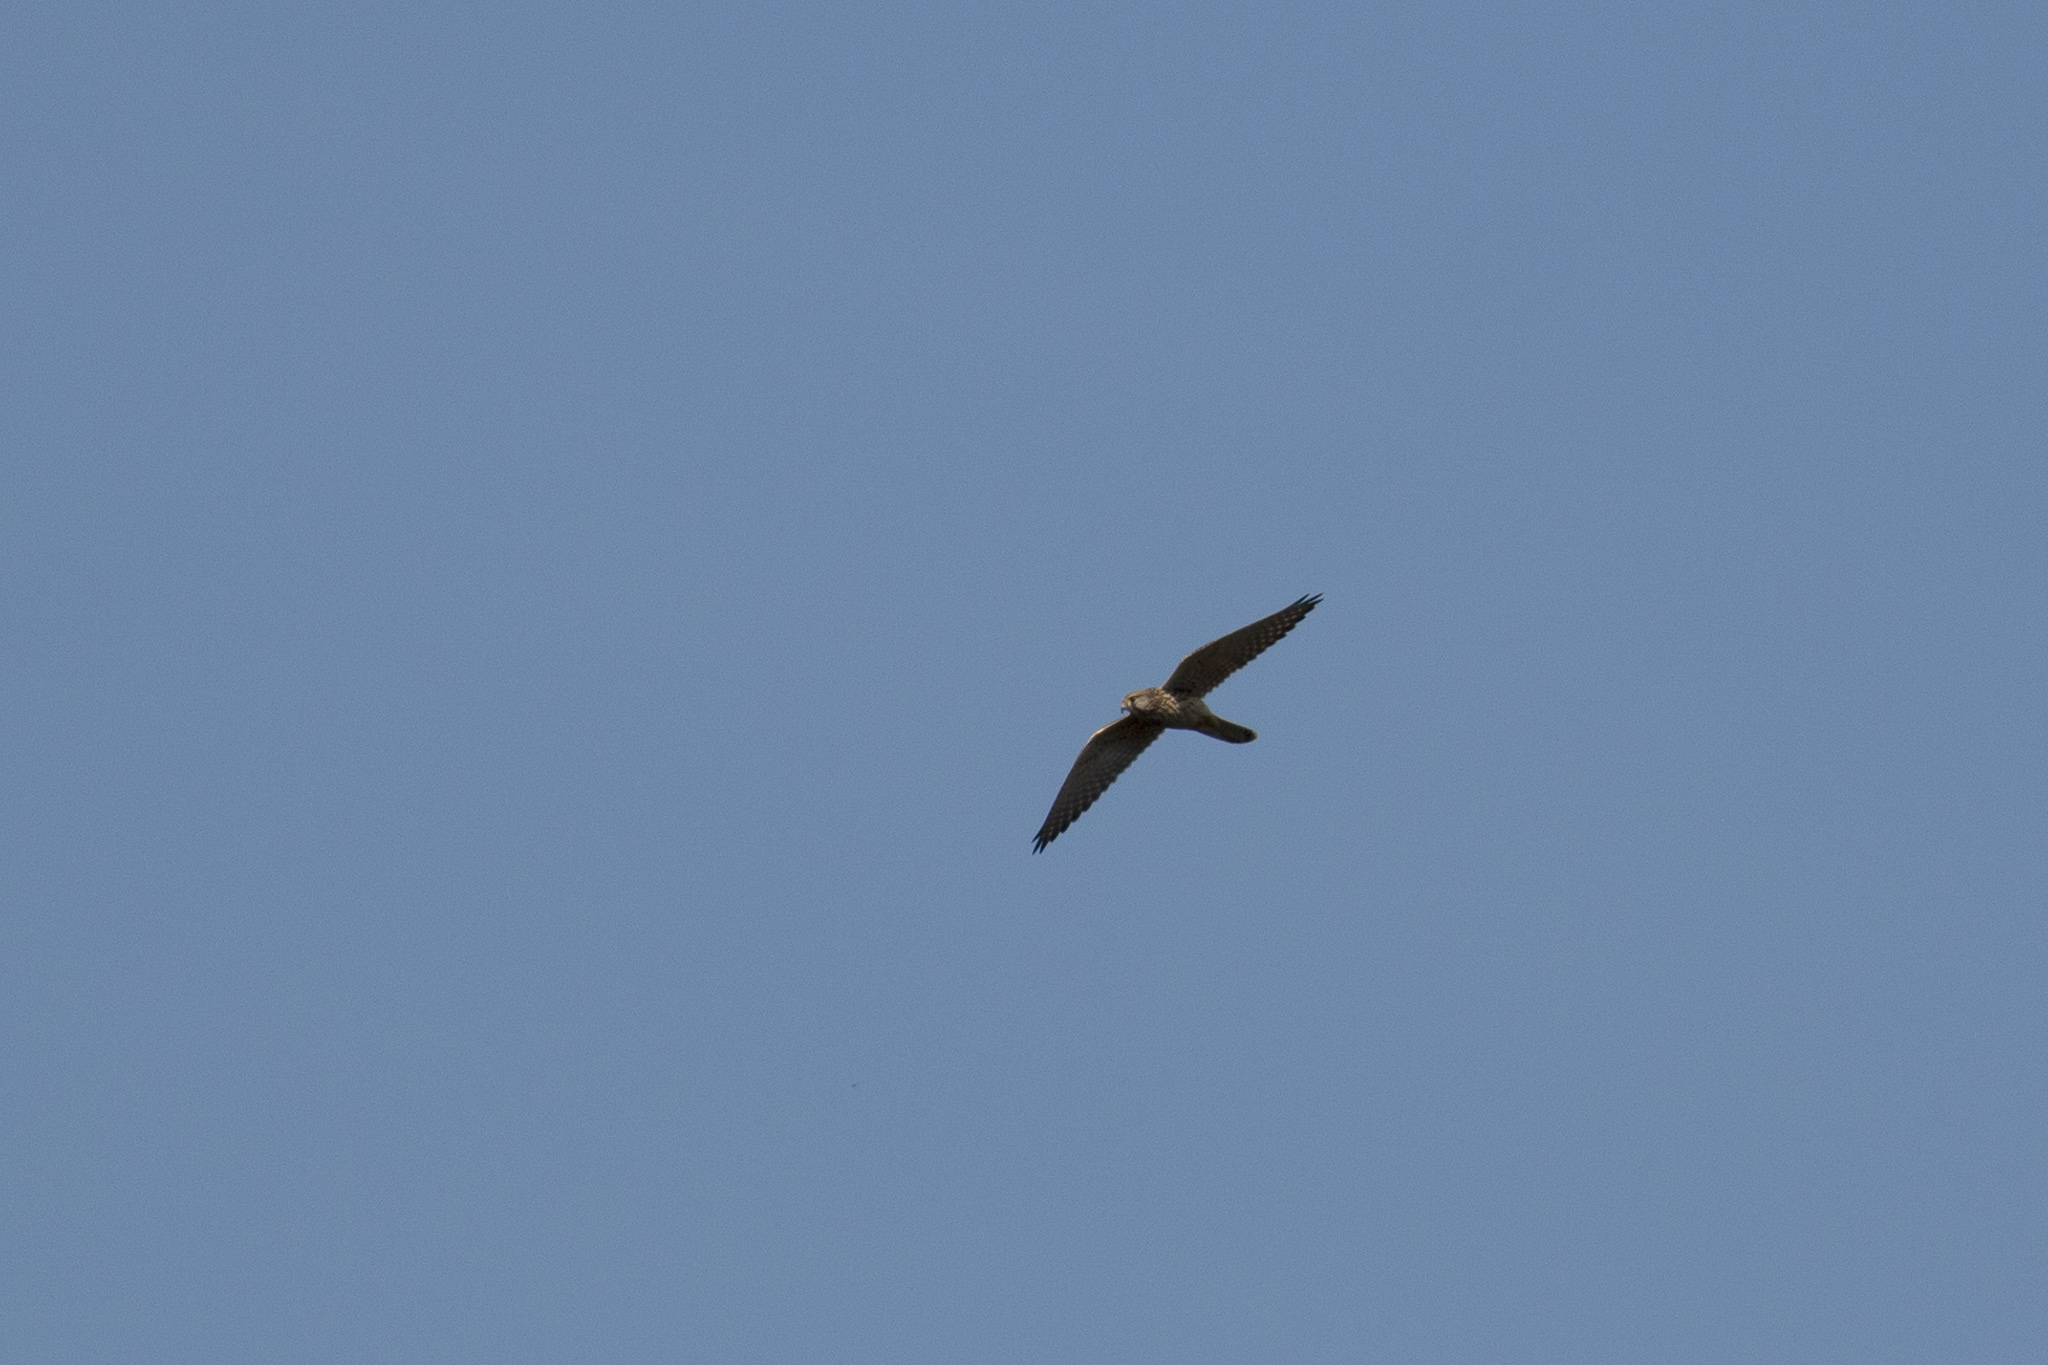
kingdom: Animalia
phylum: Chordata
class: Aves
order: Falconiformes
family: Falconidae
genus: Falco
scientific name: Falco tinnunculus
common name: Common kestrel
